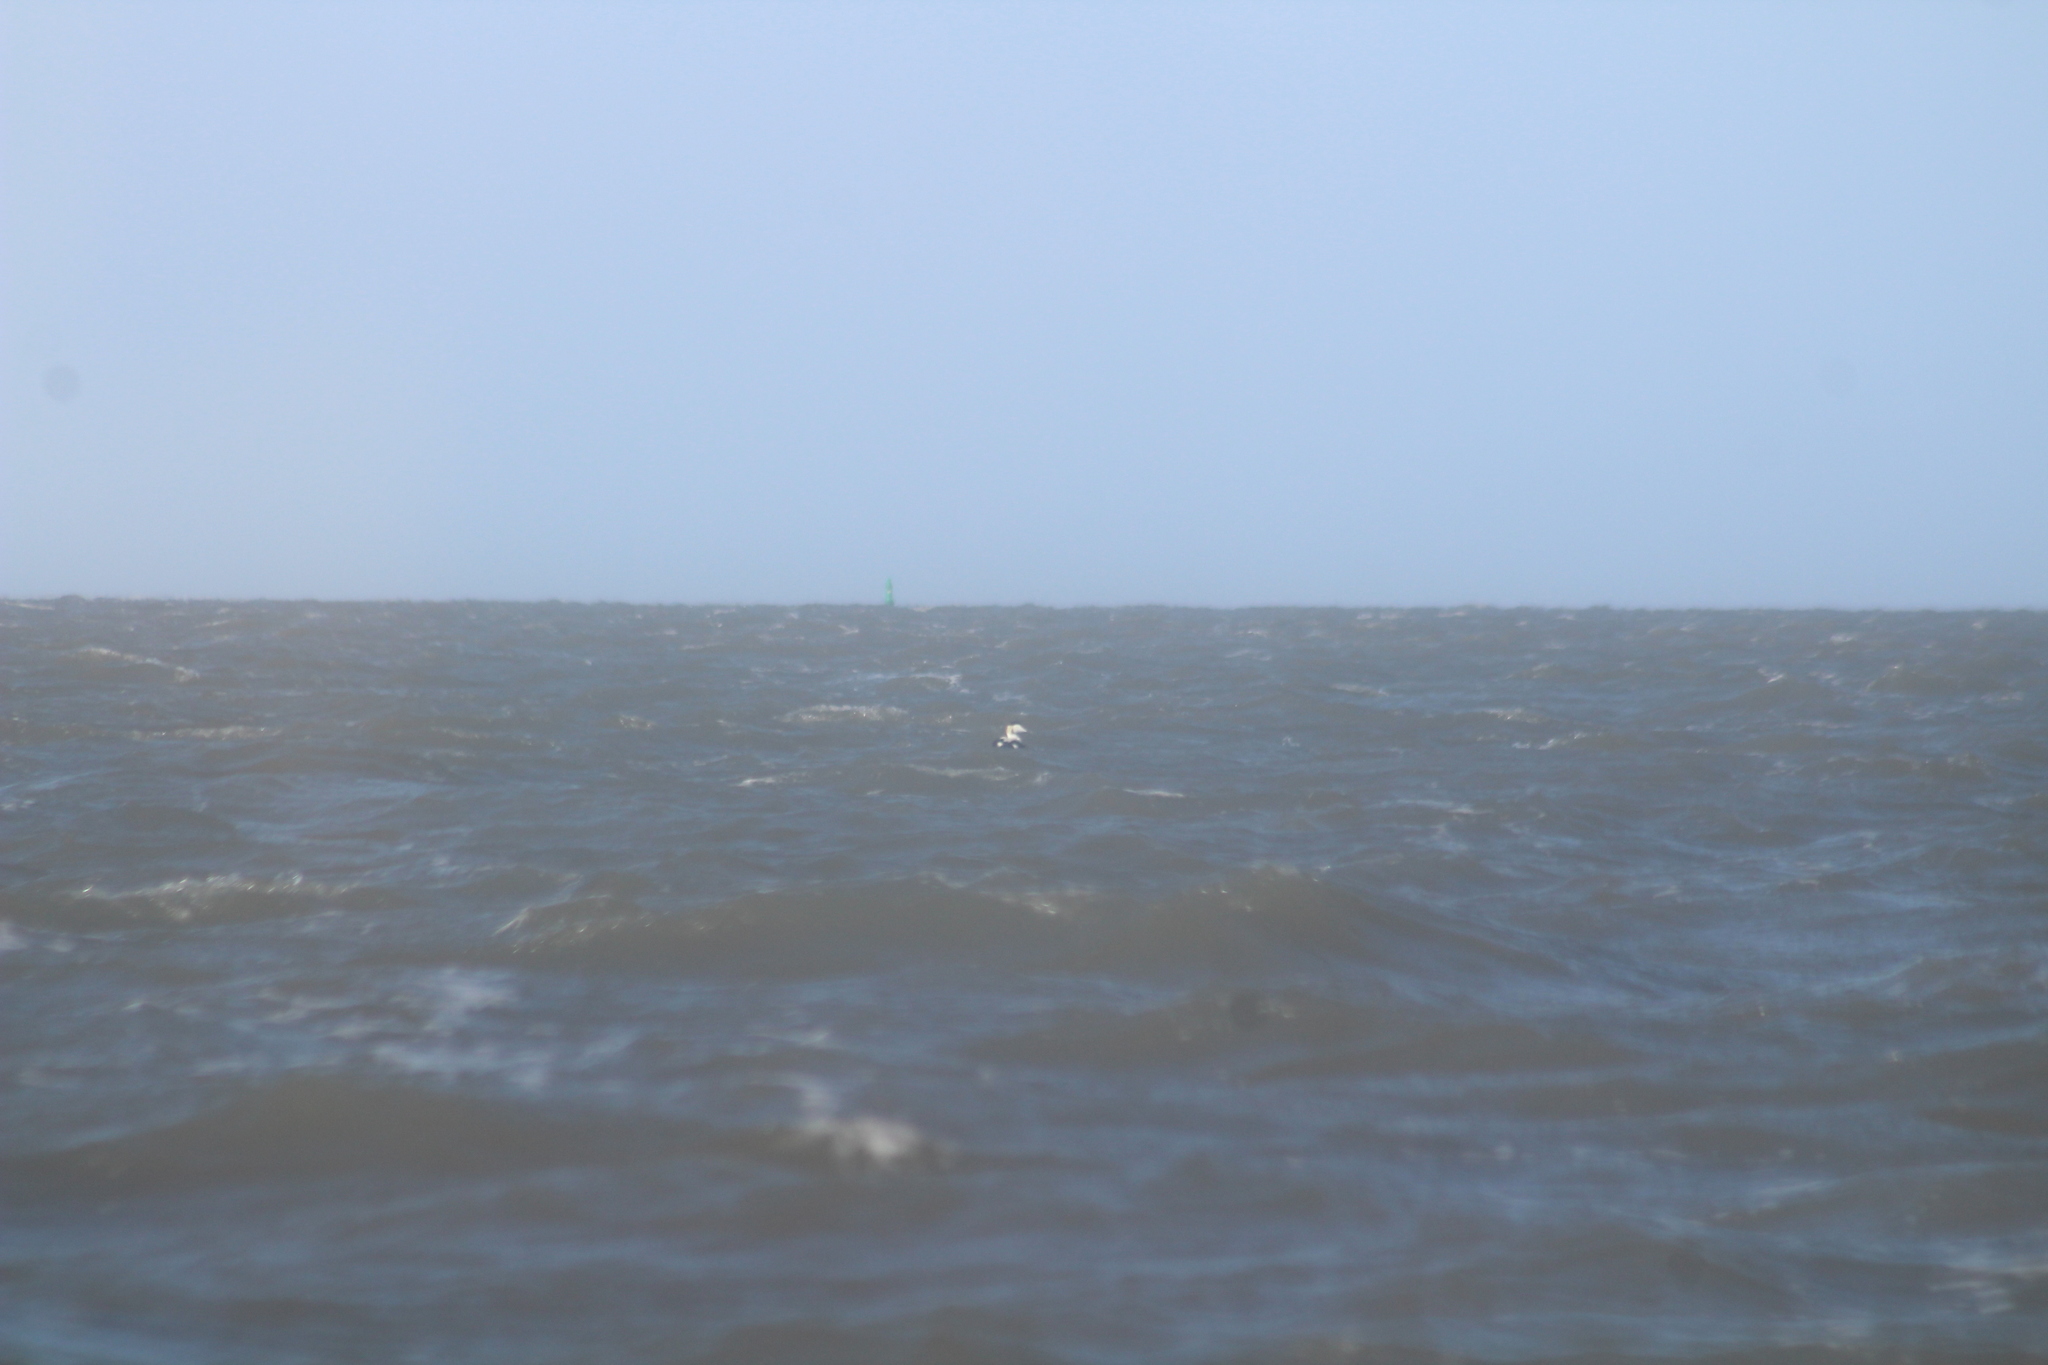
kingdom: Animalia
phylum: Chordata
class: Aves
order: Anseriformes
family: Anatidae
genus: Somateria
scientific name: Somateria mollissima
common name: Common eider
